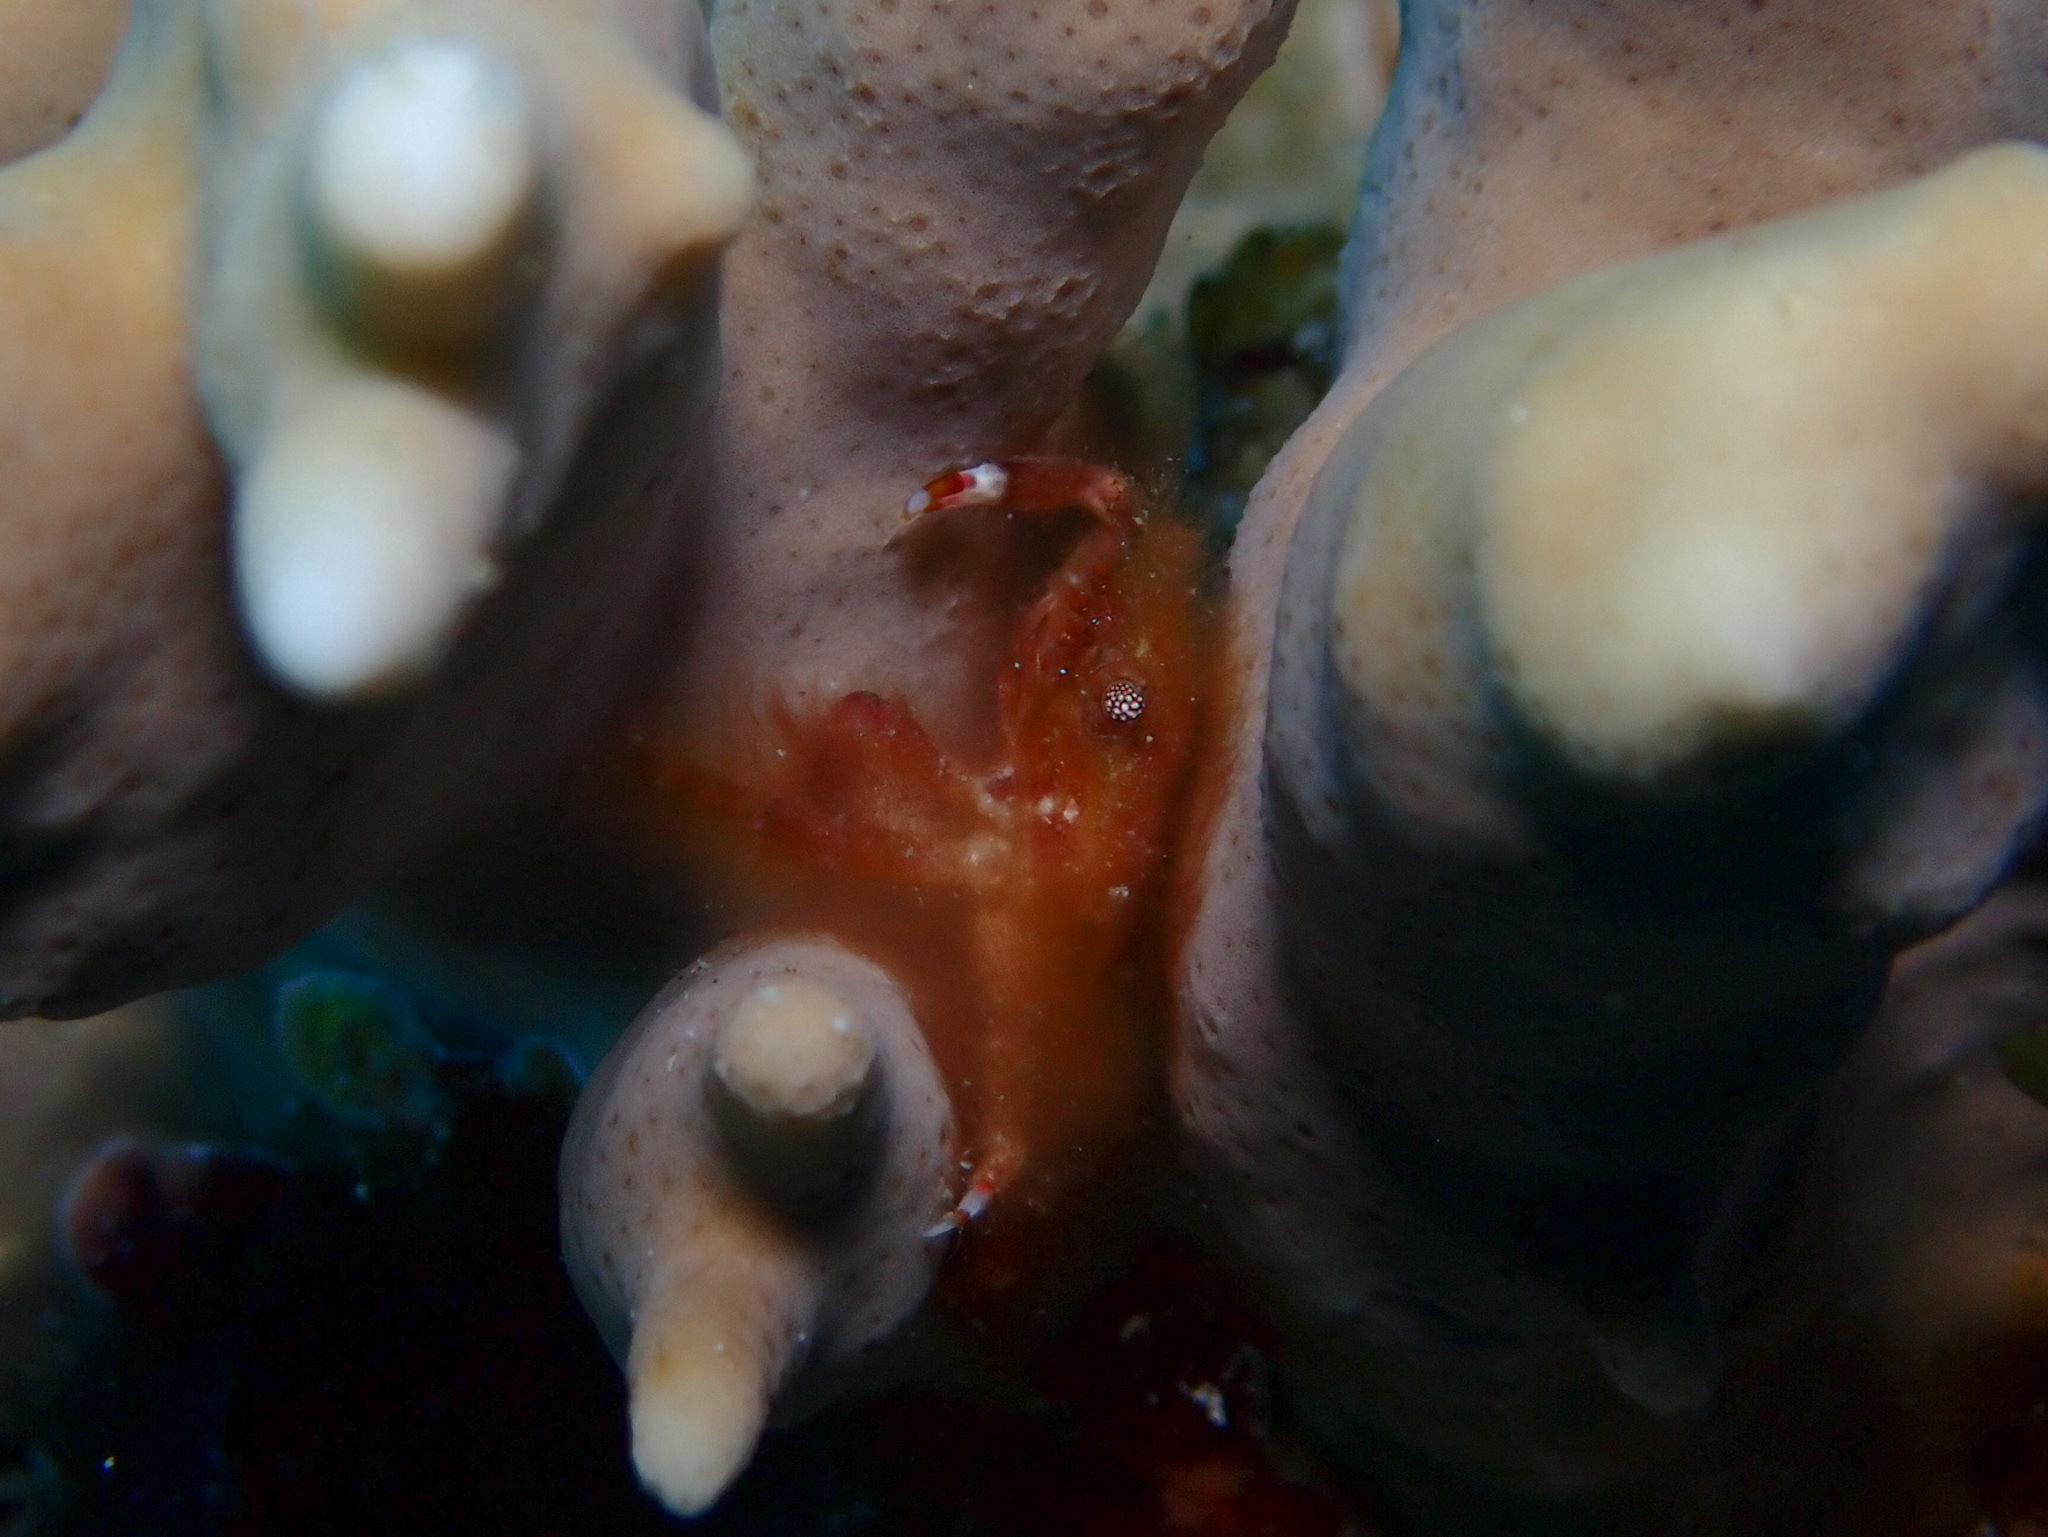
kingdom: Animalia
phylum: Arthropoda
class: Malacostraca
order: Decapoda
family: Mithracidae
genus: Mithraculus
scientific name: Mithraculus cinctimanus
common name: Banded clinging crab
